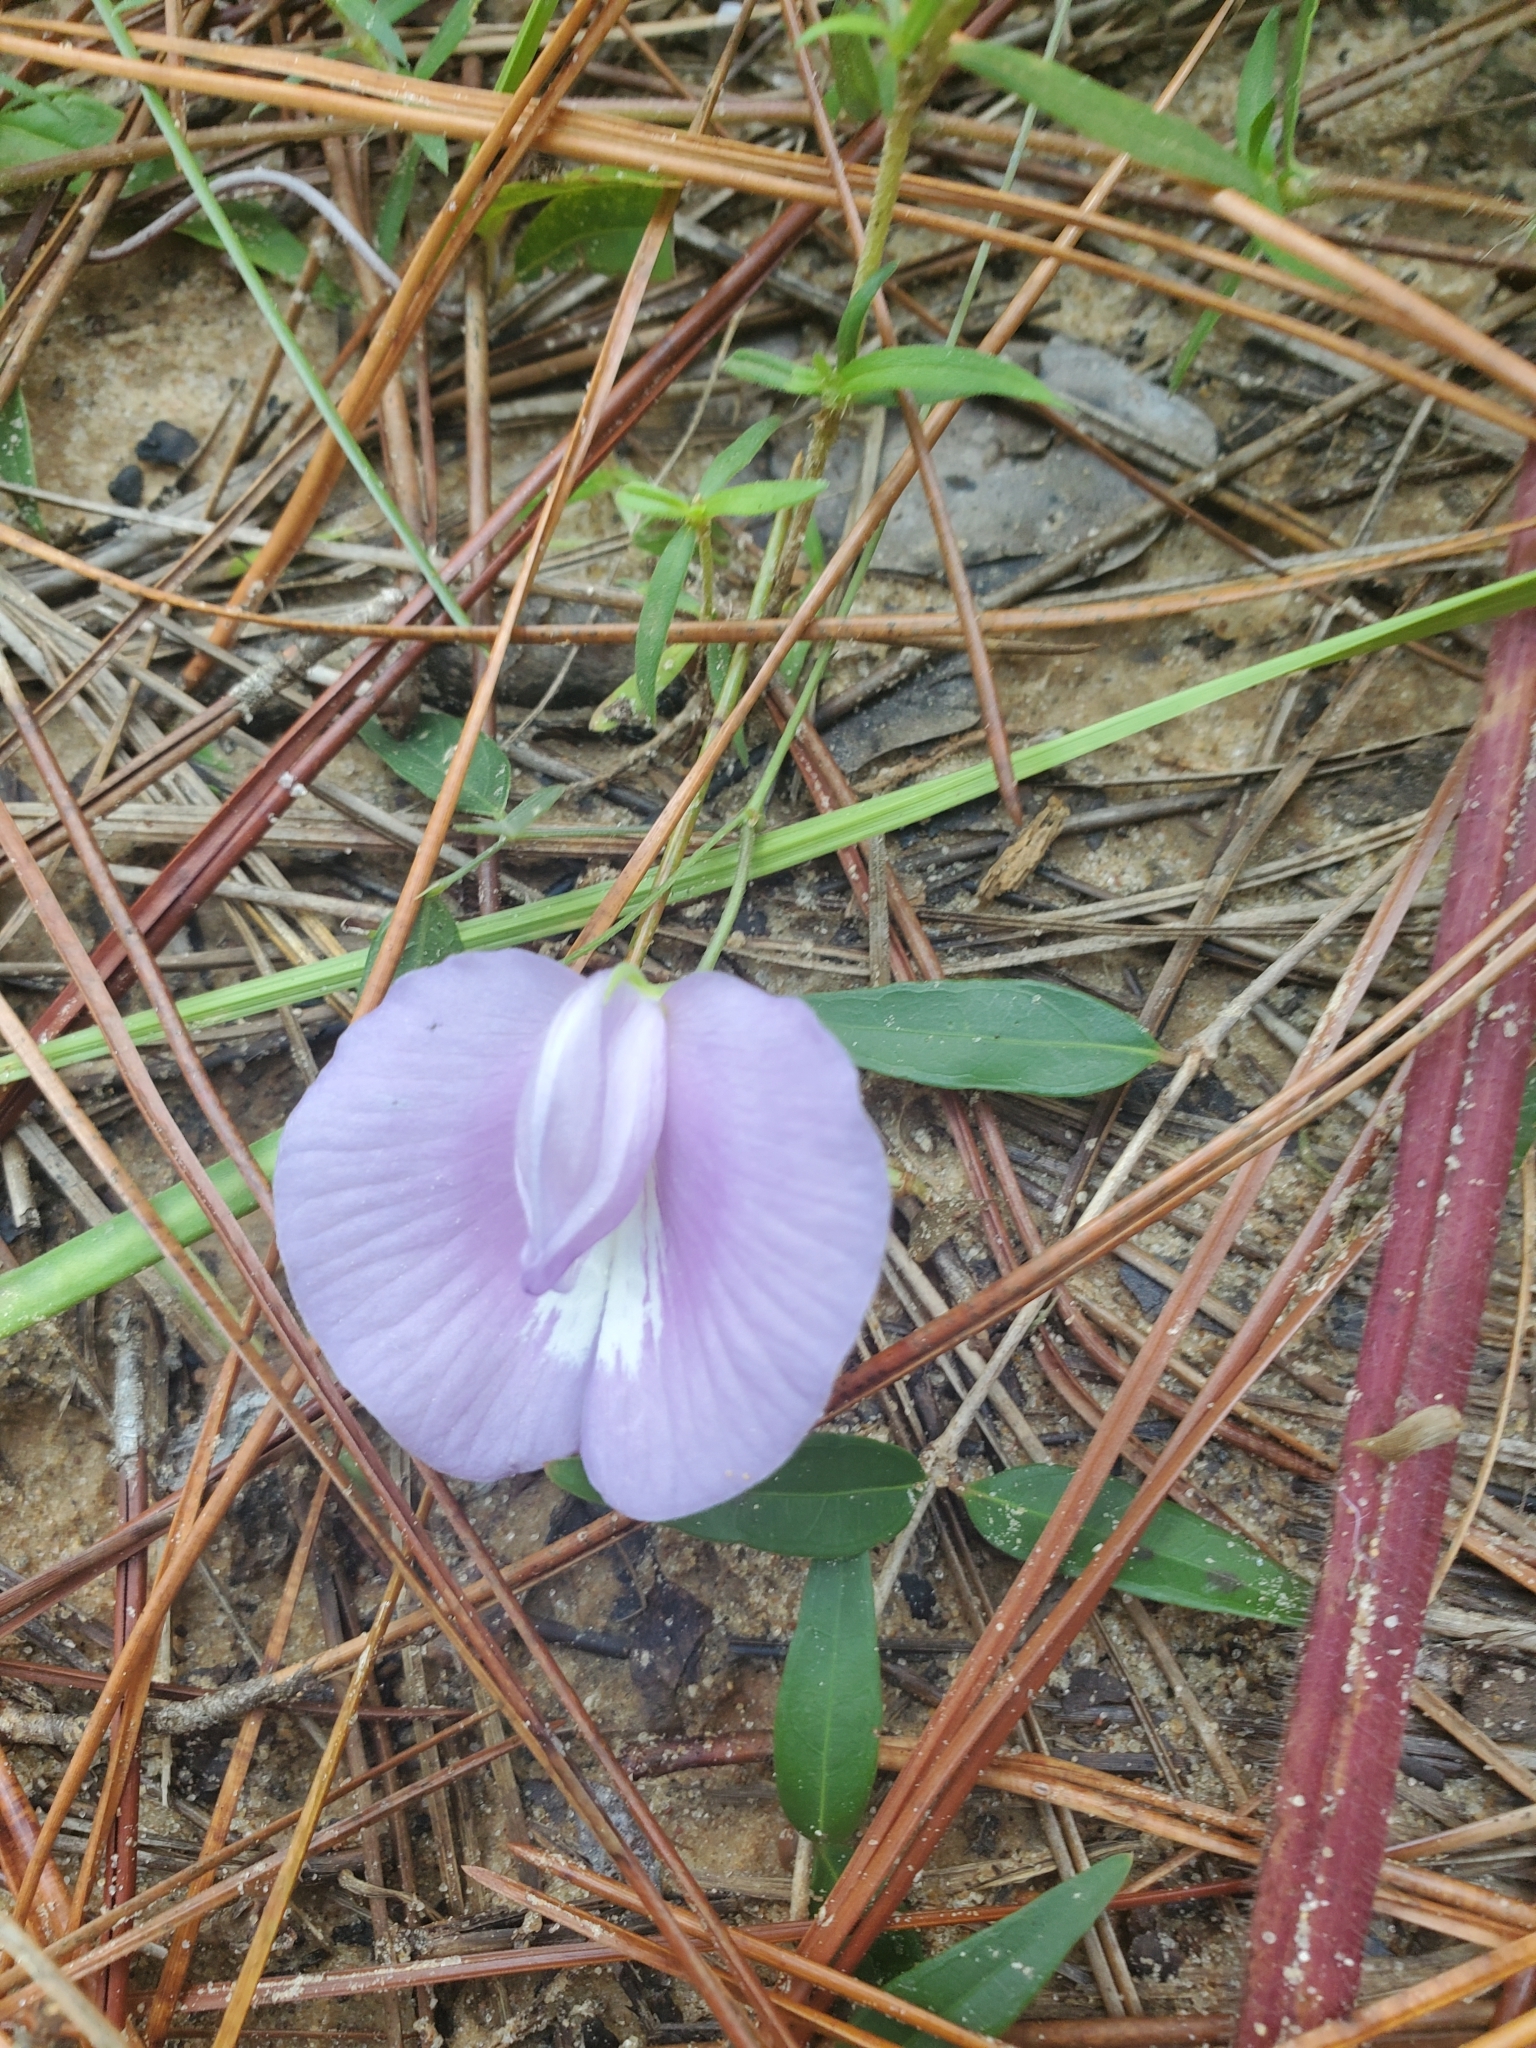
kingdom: Plantae
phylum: Tracheophyta
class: Magnoliopsida
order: Fabales
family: Fabaceae
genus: Centrosema
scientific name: Centrosema virginianum
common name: Butterfly-pea
